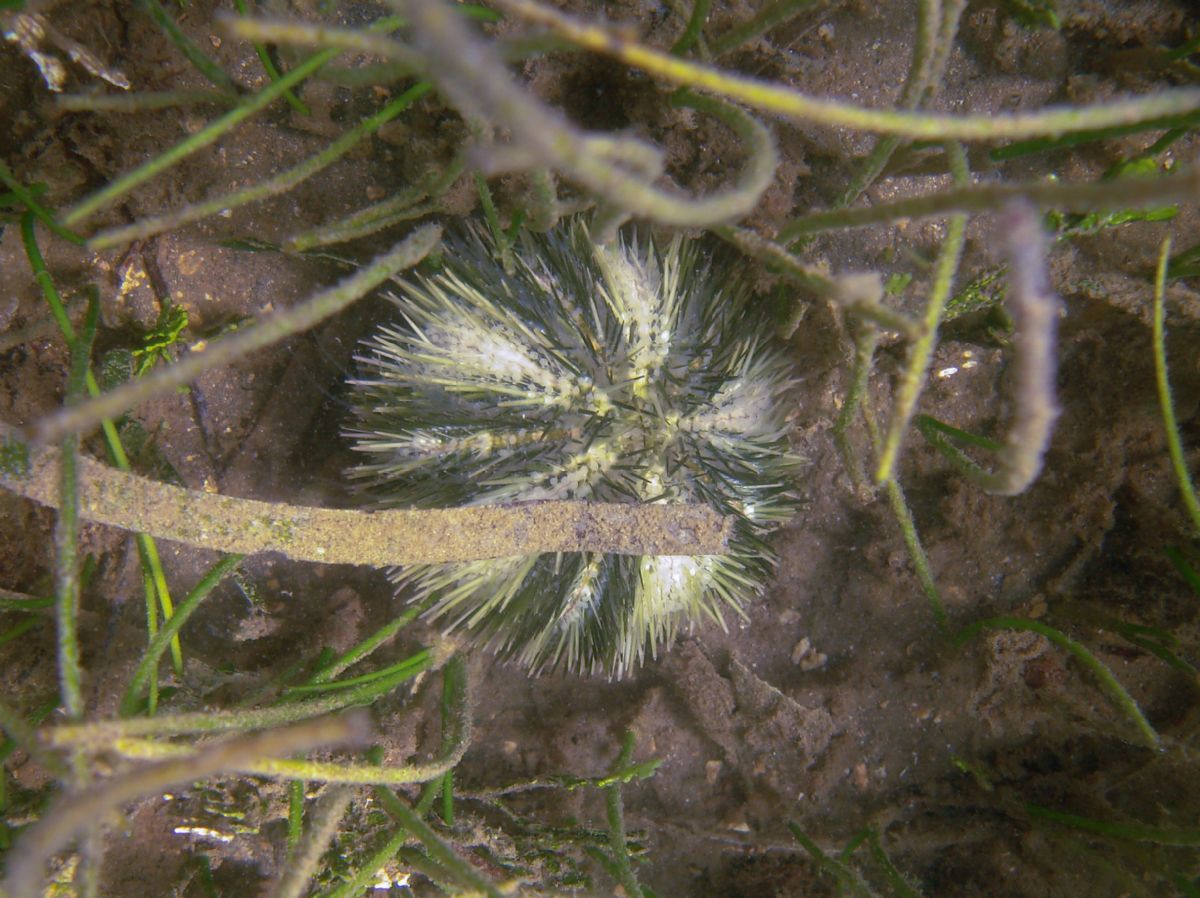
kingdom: Animalia
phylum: Echinodermata
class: Echinoidea
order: Camarodonta
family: Toxopneustidae
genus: Lytechinus
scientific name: Lytechinus variegatus
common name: Variegated urchin
